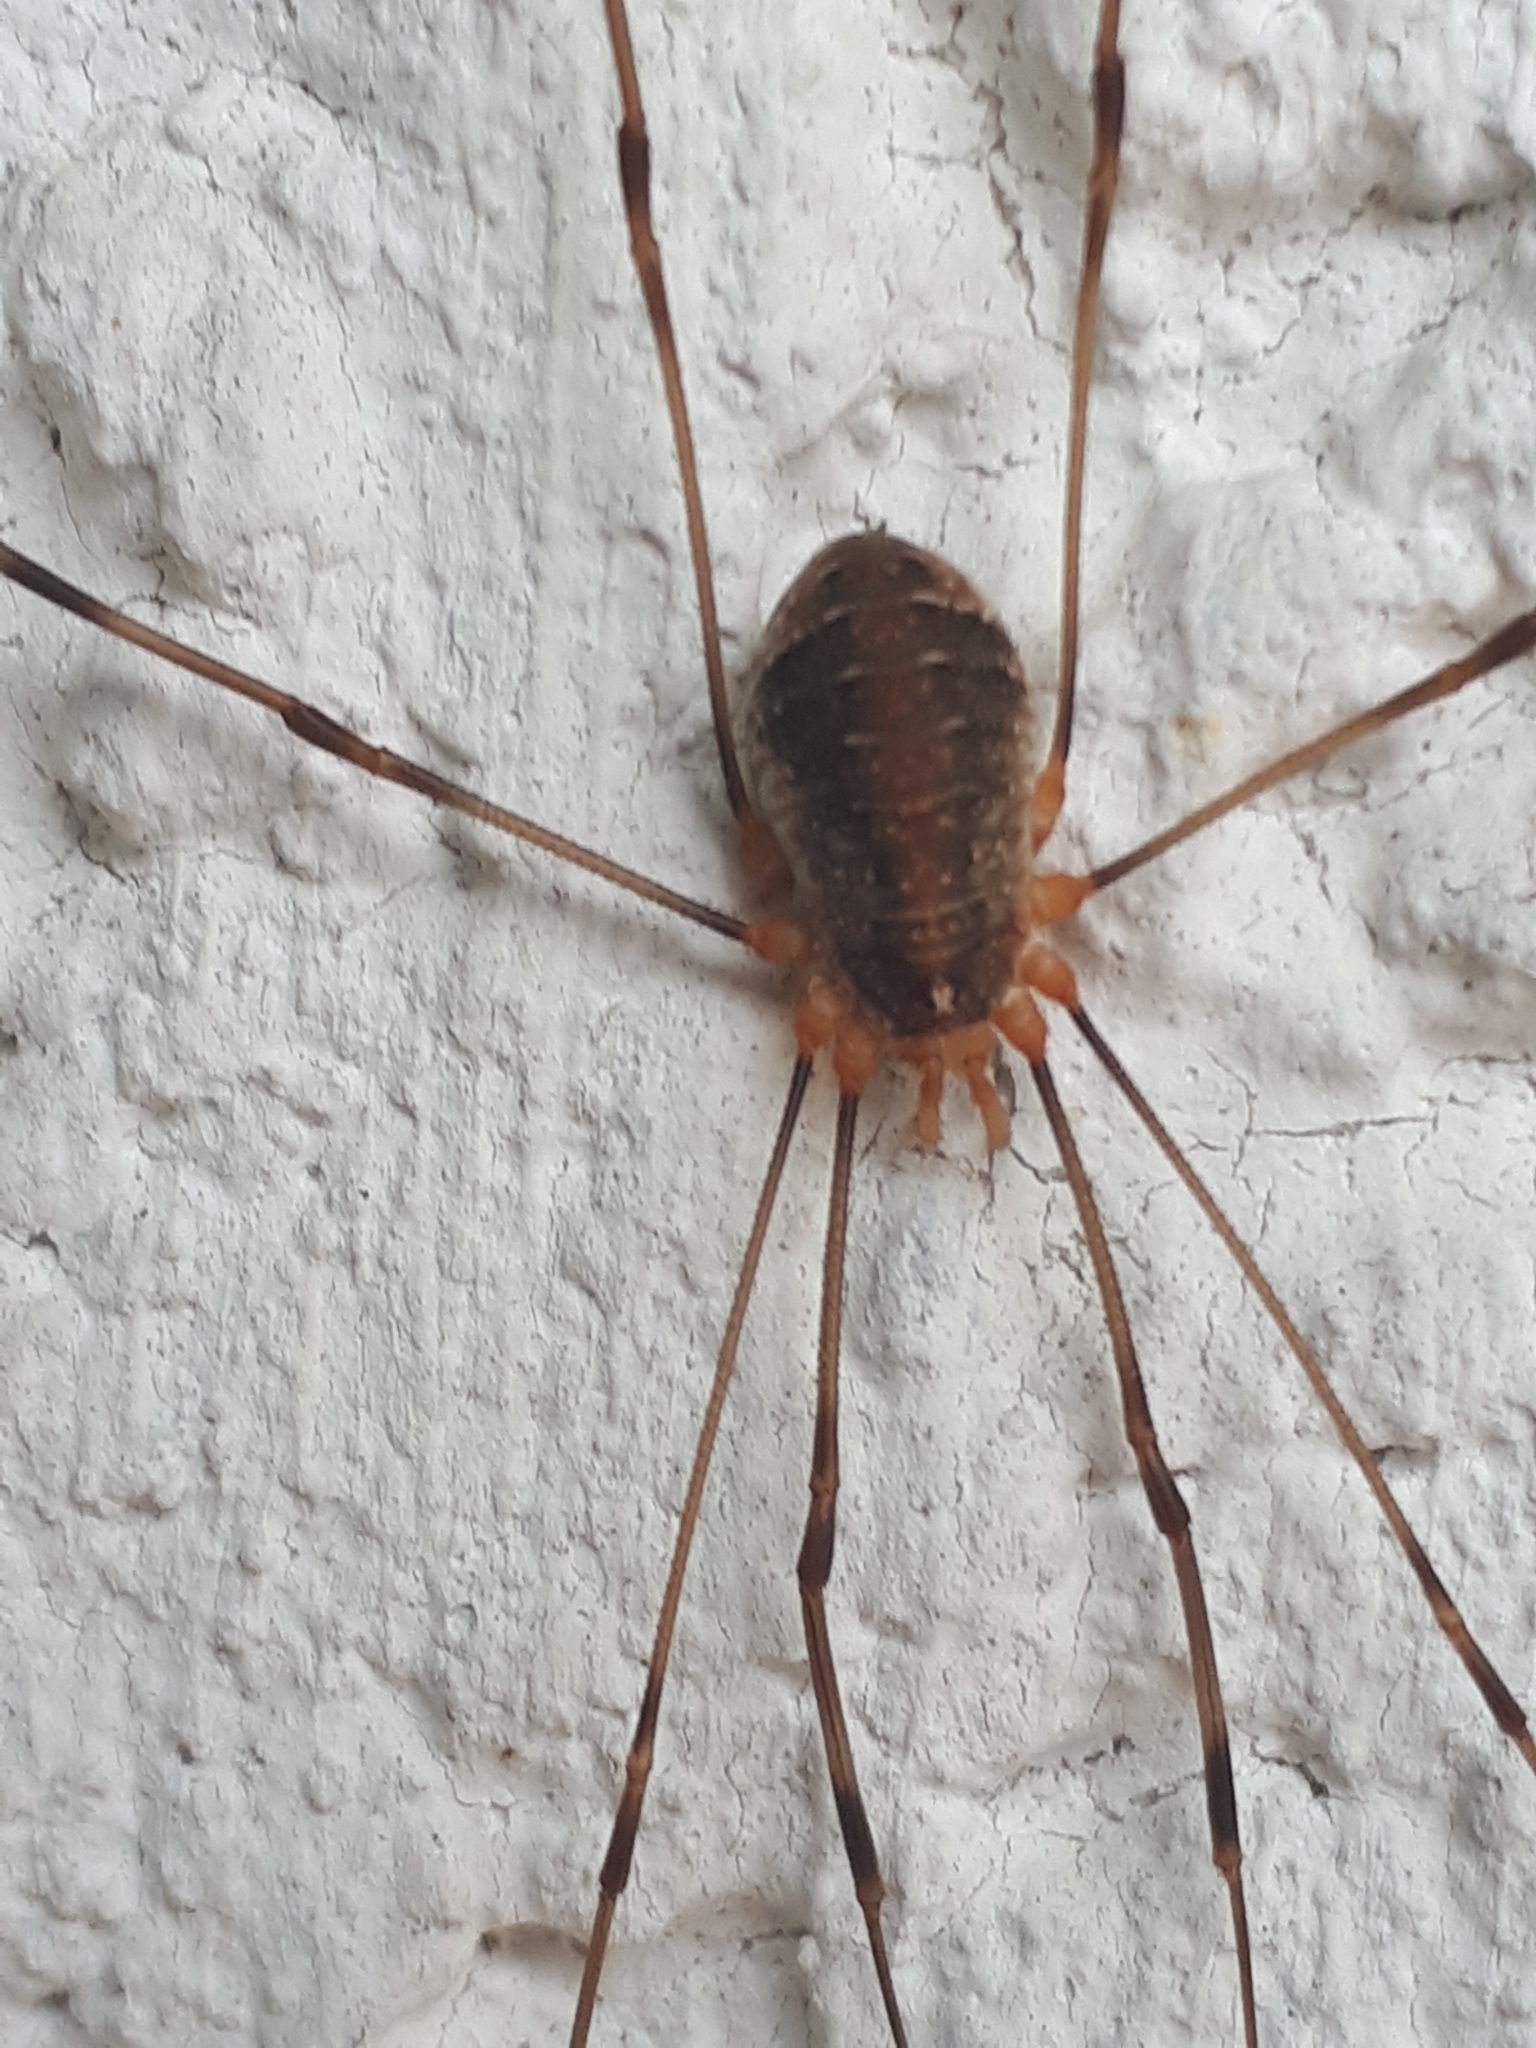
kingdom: Animalia
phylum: Arthropoda
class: Arachnida
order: Opiliones
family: Phalangiidae
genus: Opilio
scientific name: Opilio canestrinii
